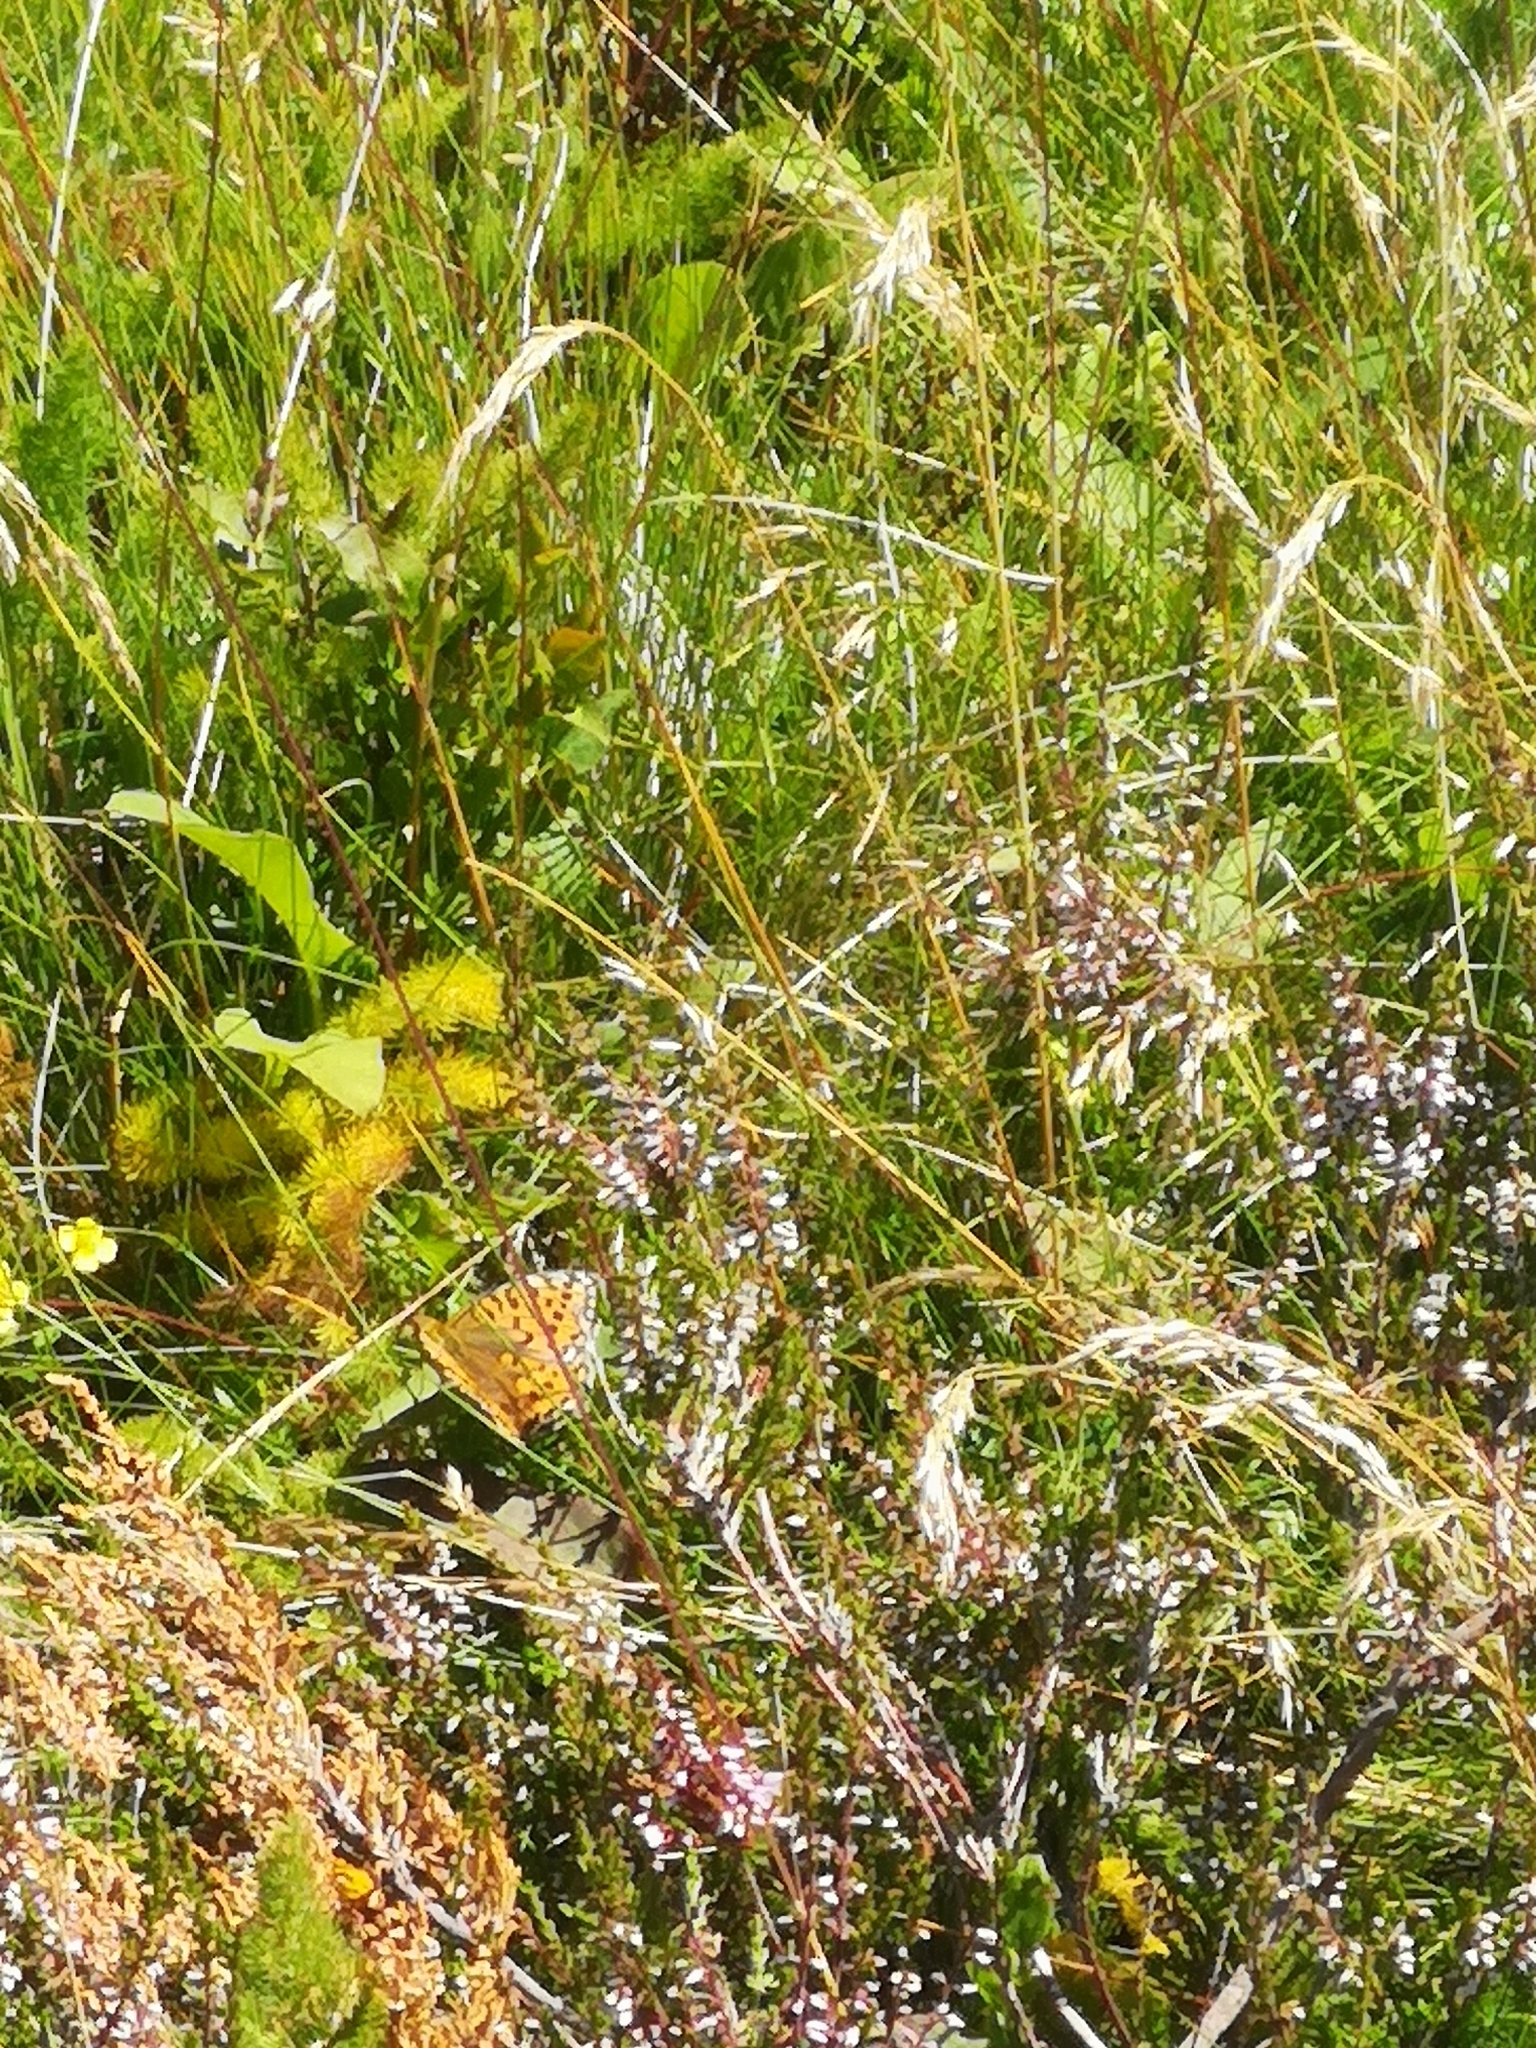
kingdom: Animalia
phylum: Arthropoda
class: Insecta
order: Lepidoptera
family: Nymphalidae
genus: Speyeria
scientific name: Speyeria aglaja
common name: Dark green fritillary
